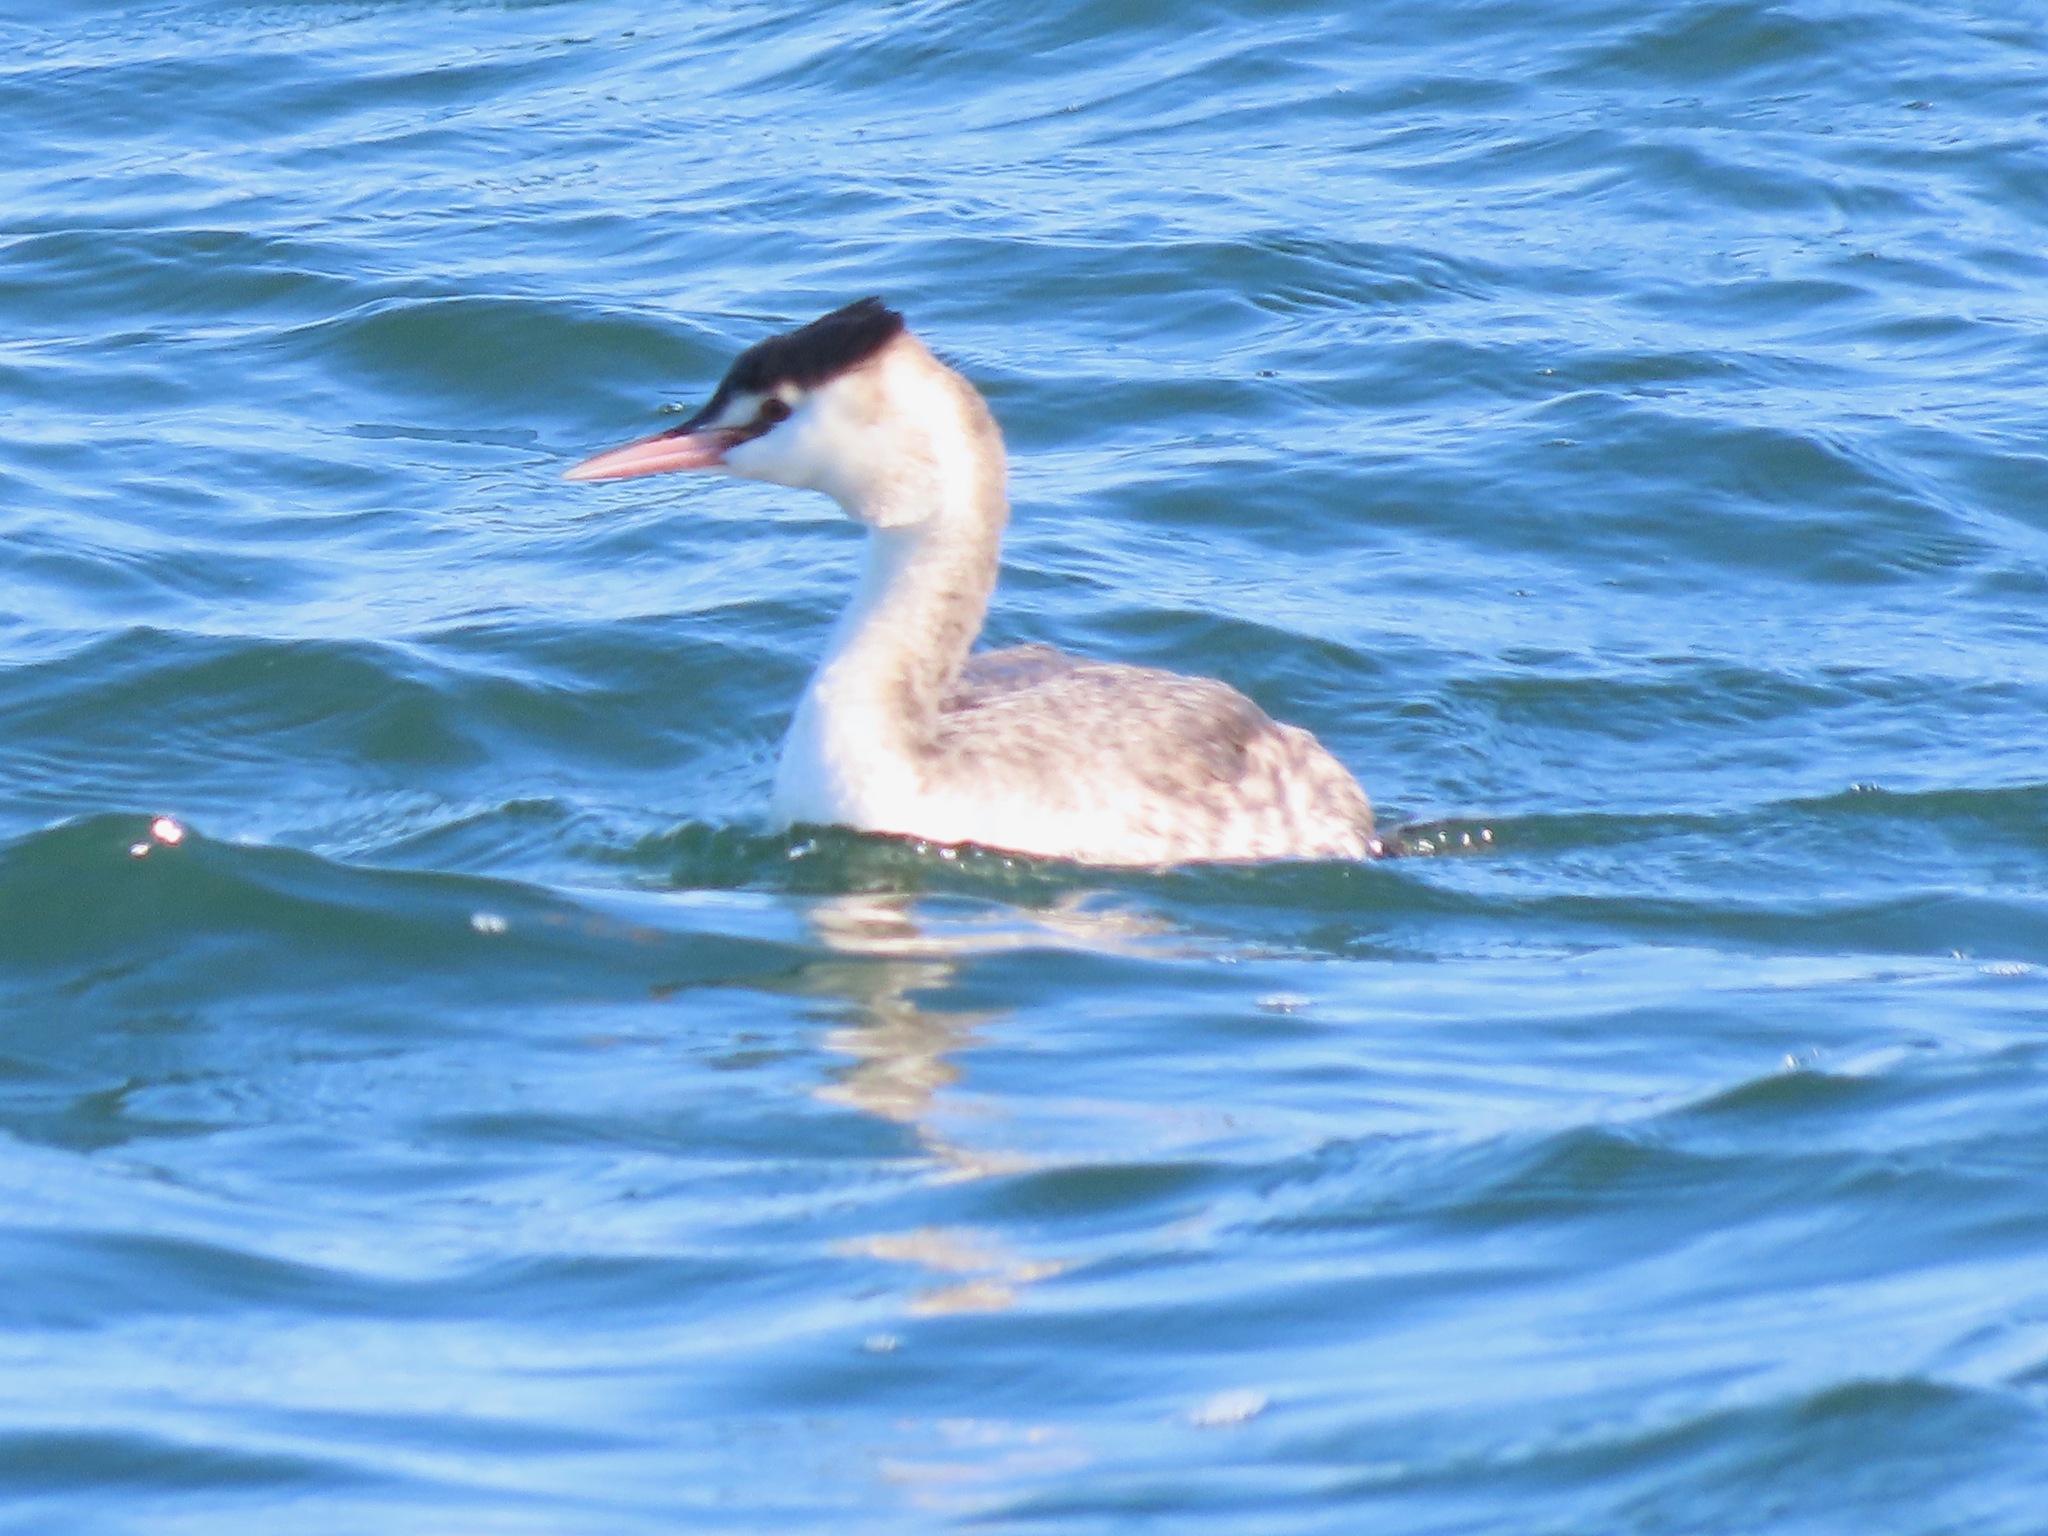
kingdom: Animalia
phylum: Chordata
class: Aves
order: Podicipediformes
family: Podicipedidae
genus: Podiceps
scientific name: Podiceps cristatus
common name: Great crested grebe
